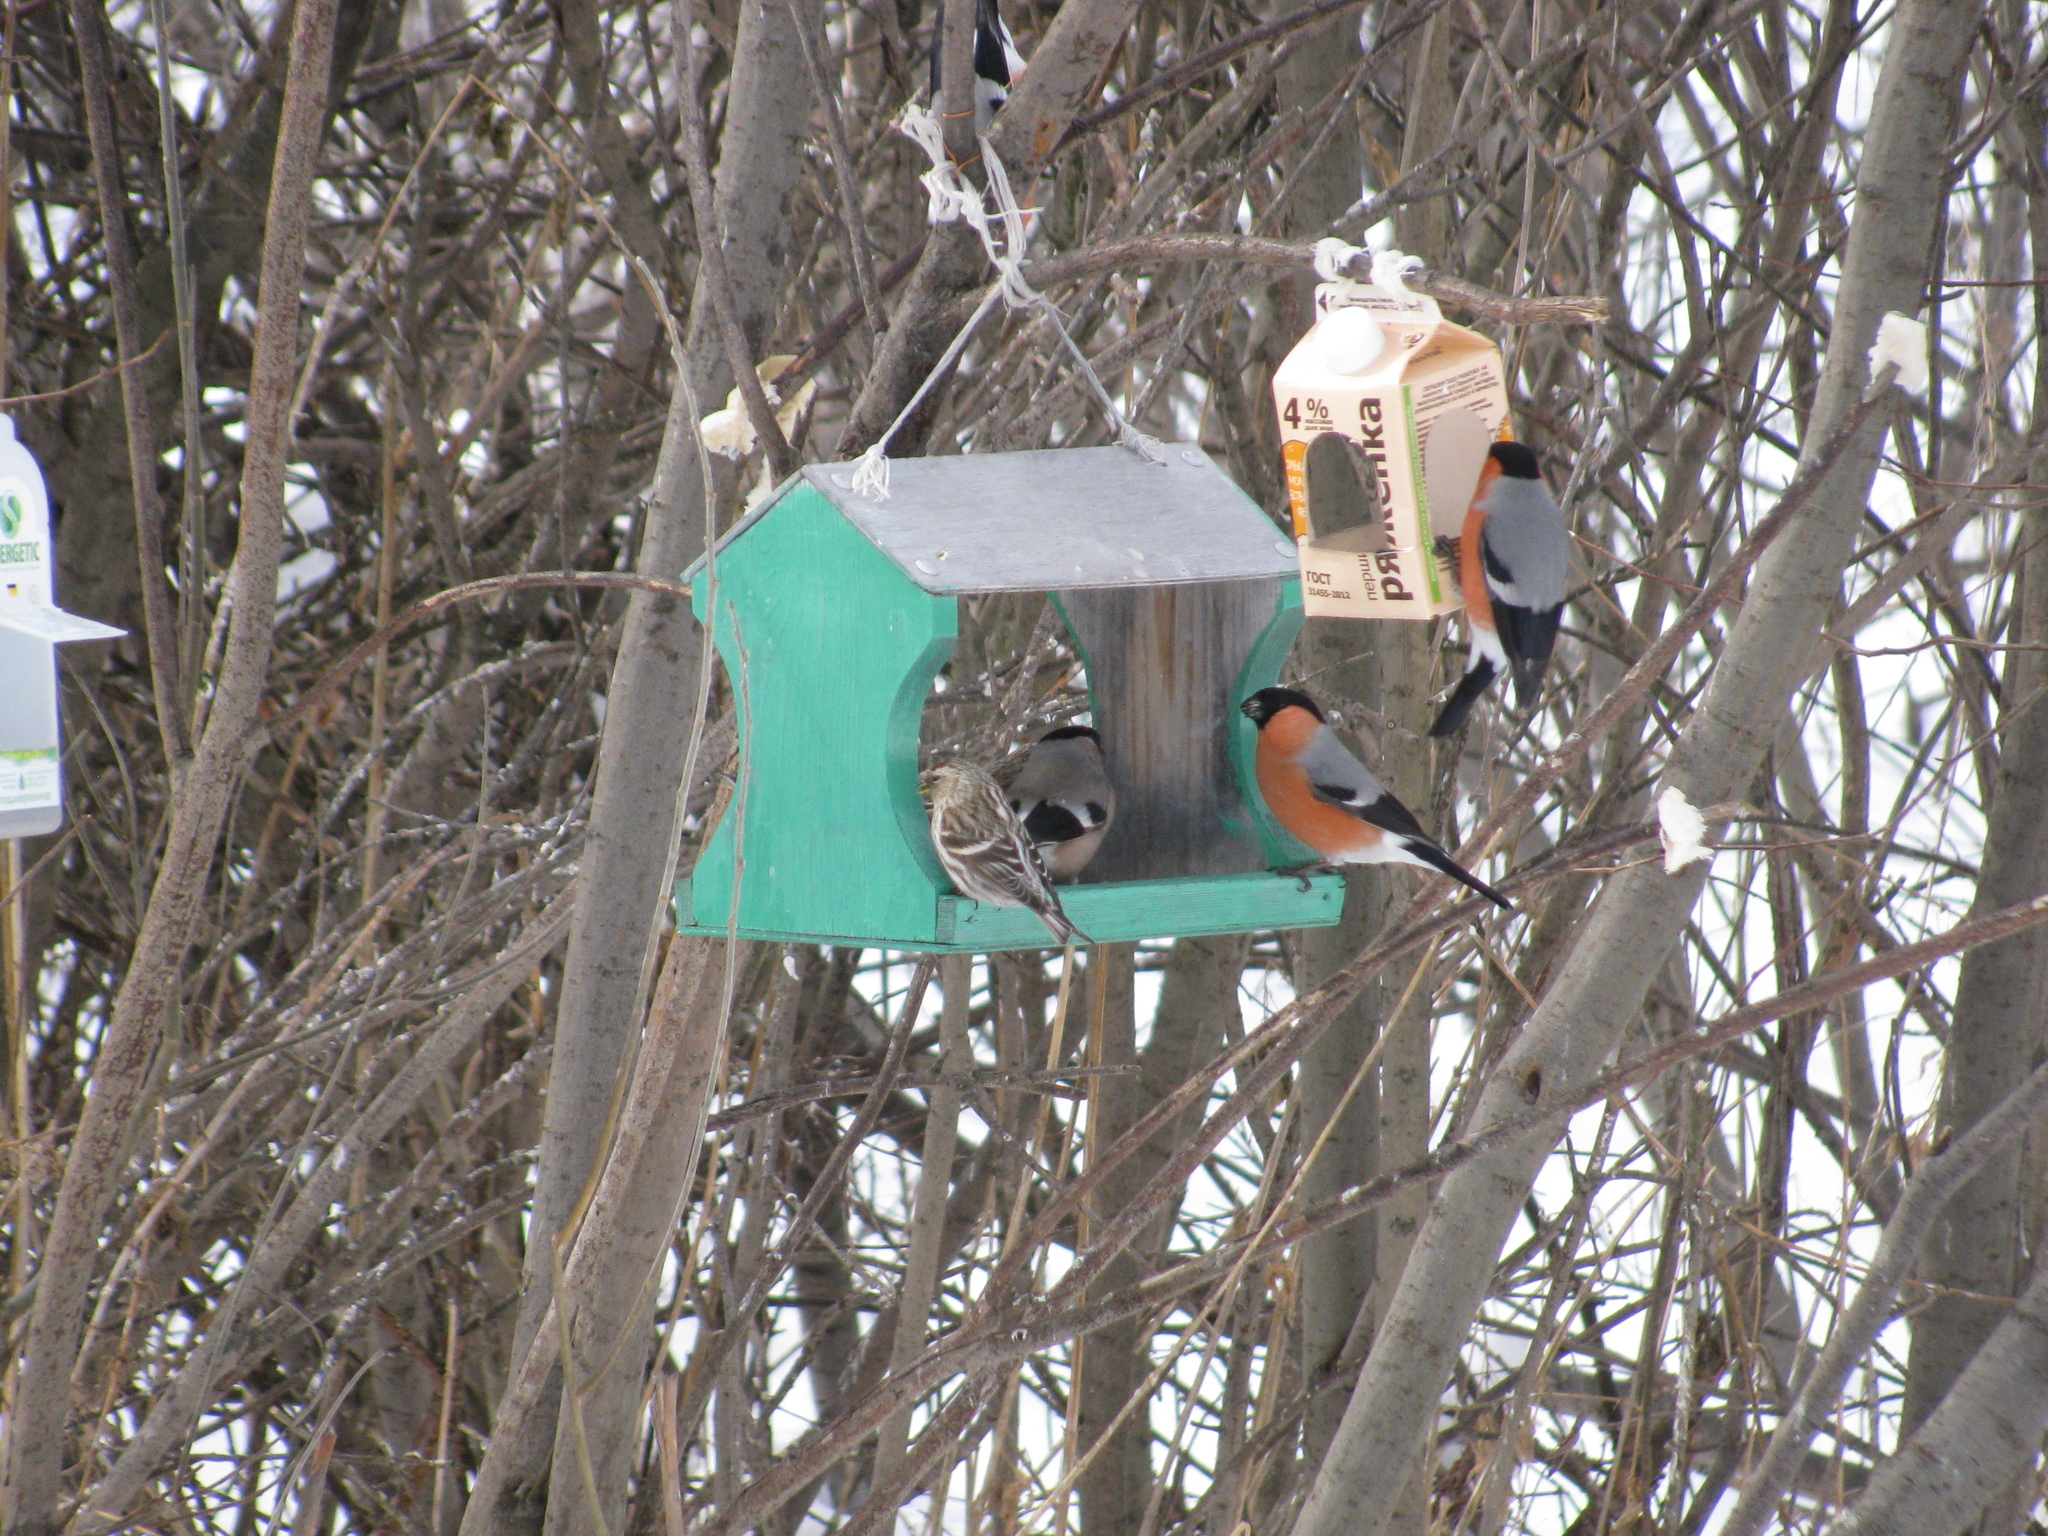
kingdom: Animalia
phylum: Chordata
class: Aves
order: Passeriformes
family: Fringillidae
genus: Acanthis
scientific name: Acanthis flammea
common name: Common redpoll
